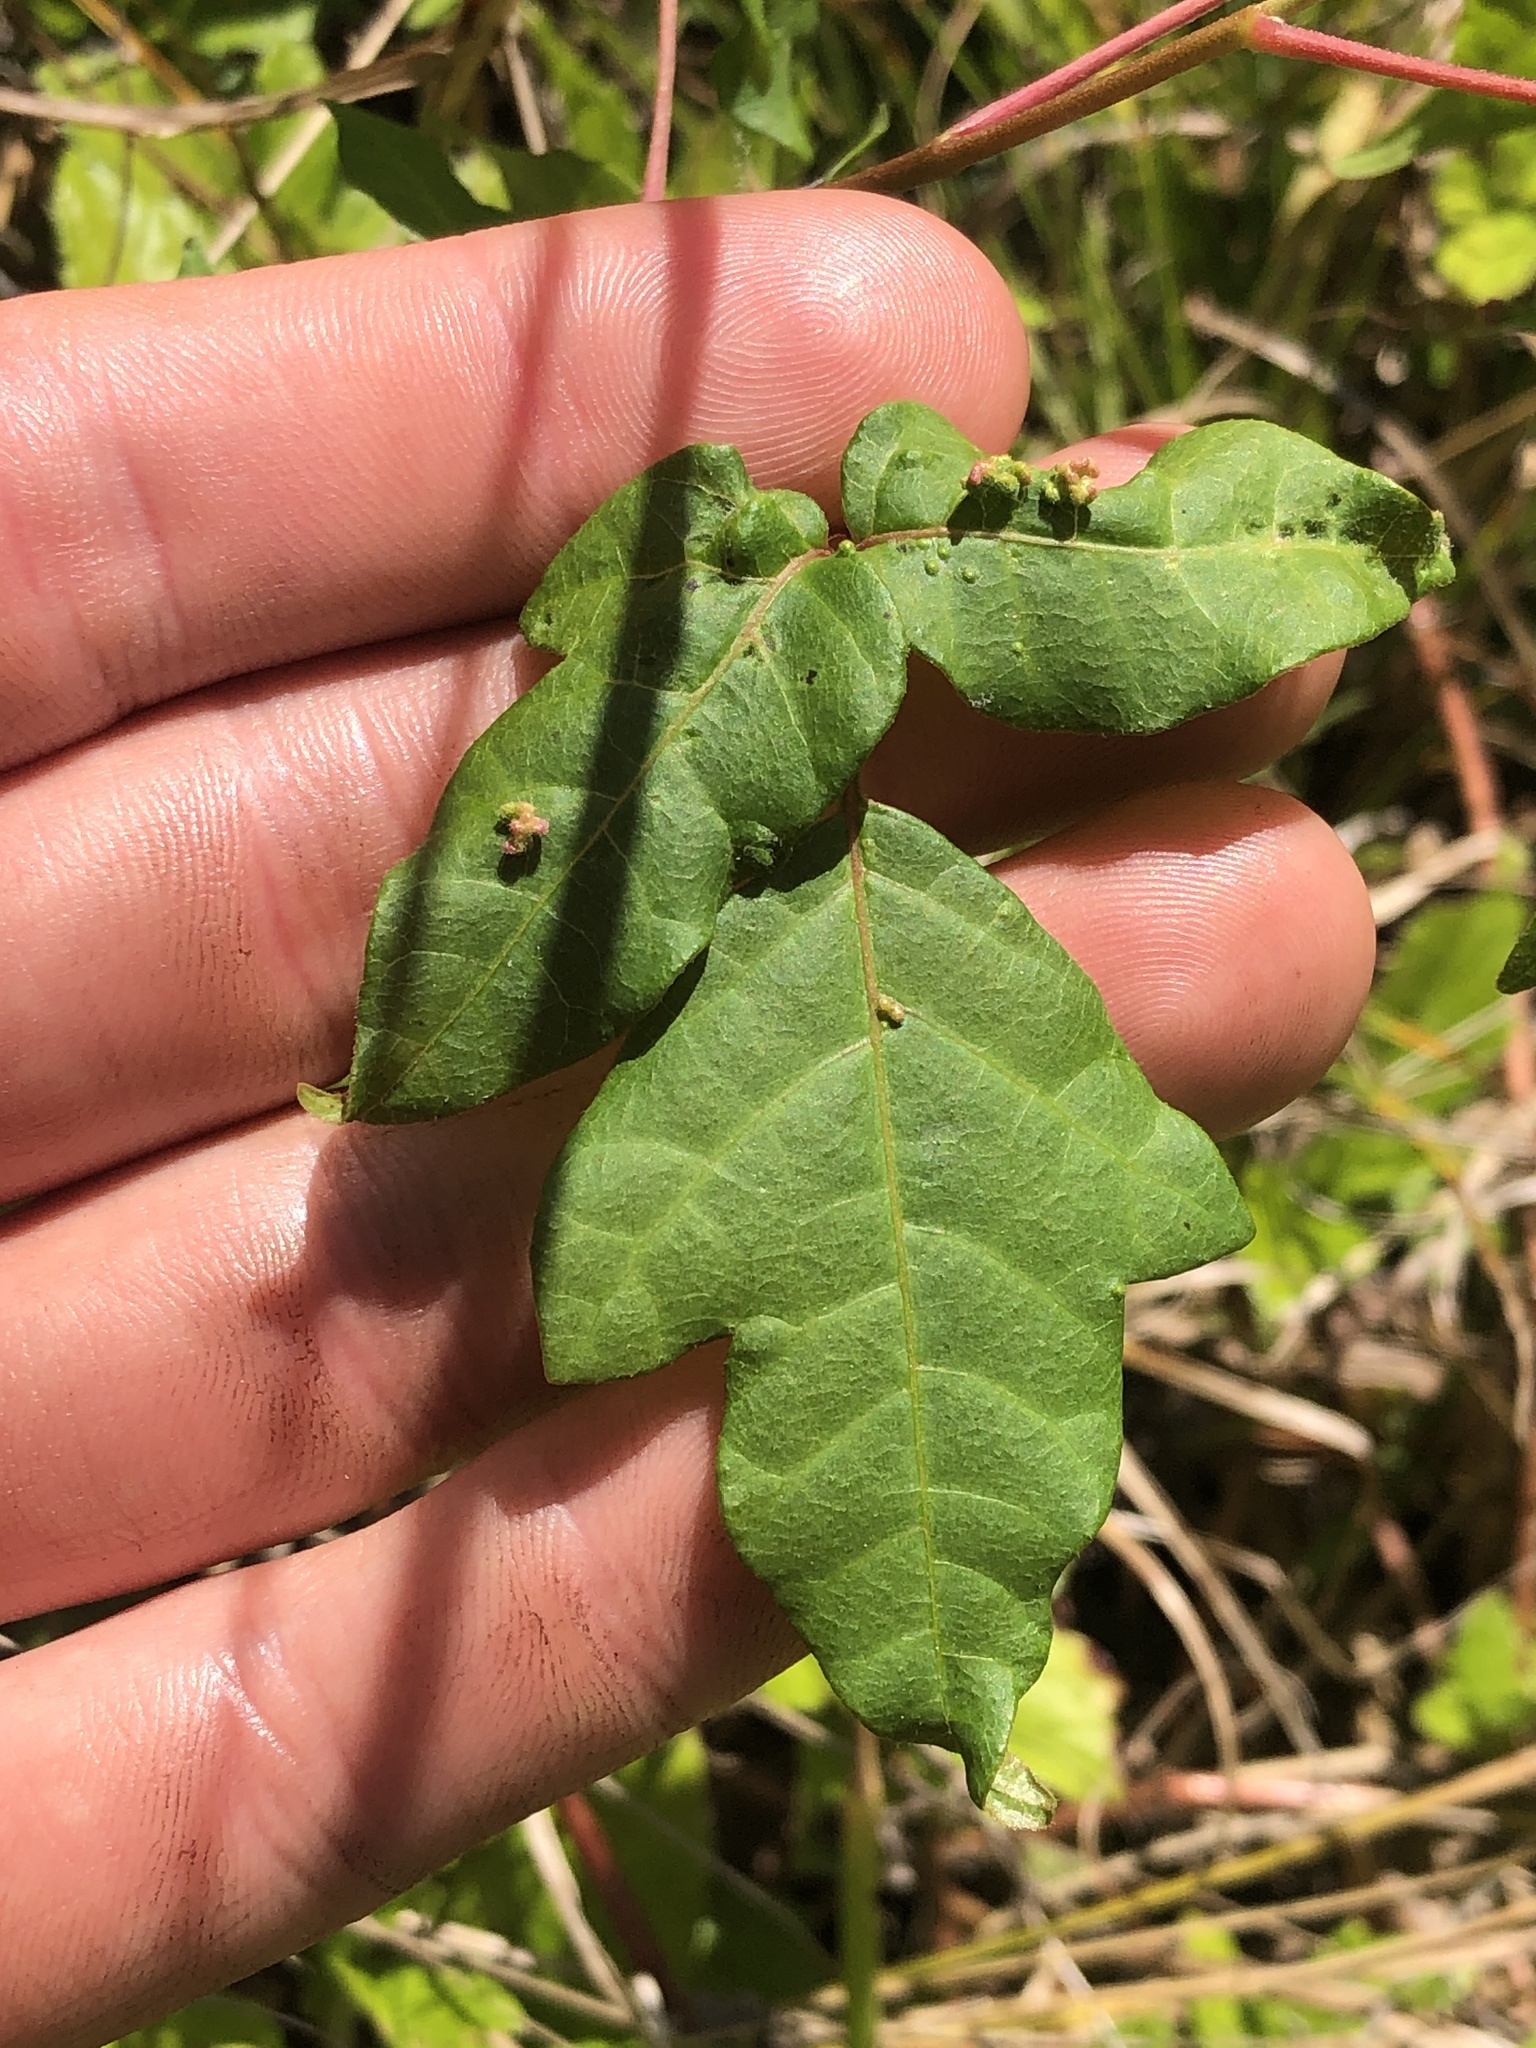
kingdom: Plantae
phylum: Tracheophyta
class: Magnoliopsida
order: Sapindales
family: Anacardiaceae
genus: Toxicodendron
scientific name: Toxicodendron radicans
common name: Poison ivy
